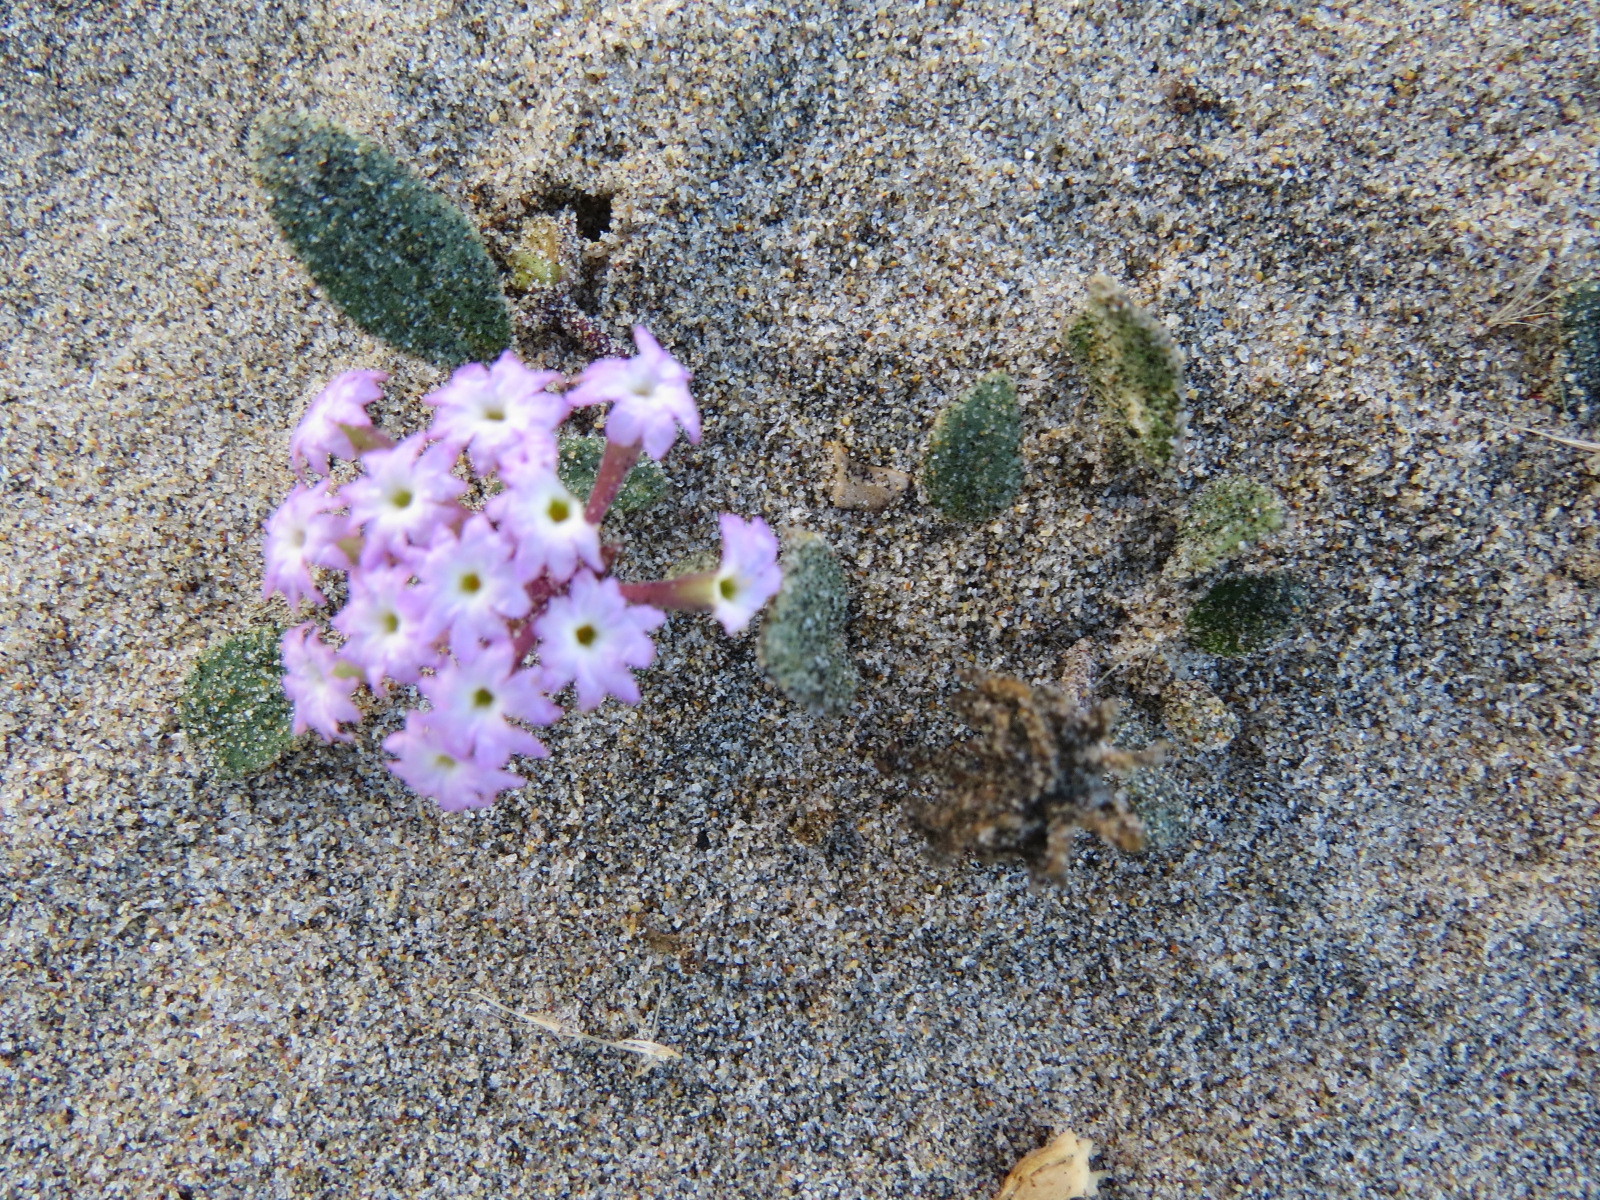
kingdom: Plantae
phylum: Tracheophyta
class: Magnoliopsida
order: Caryophyllales
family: Nyctaginaceae
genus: Abronia
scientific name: Abronia umbellata
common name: Sand-verbena
